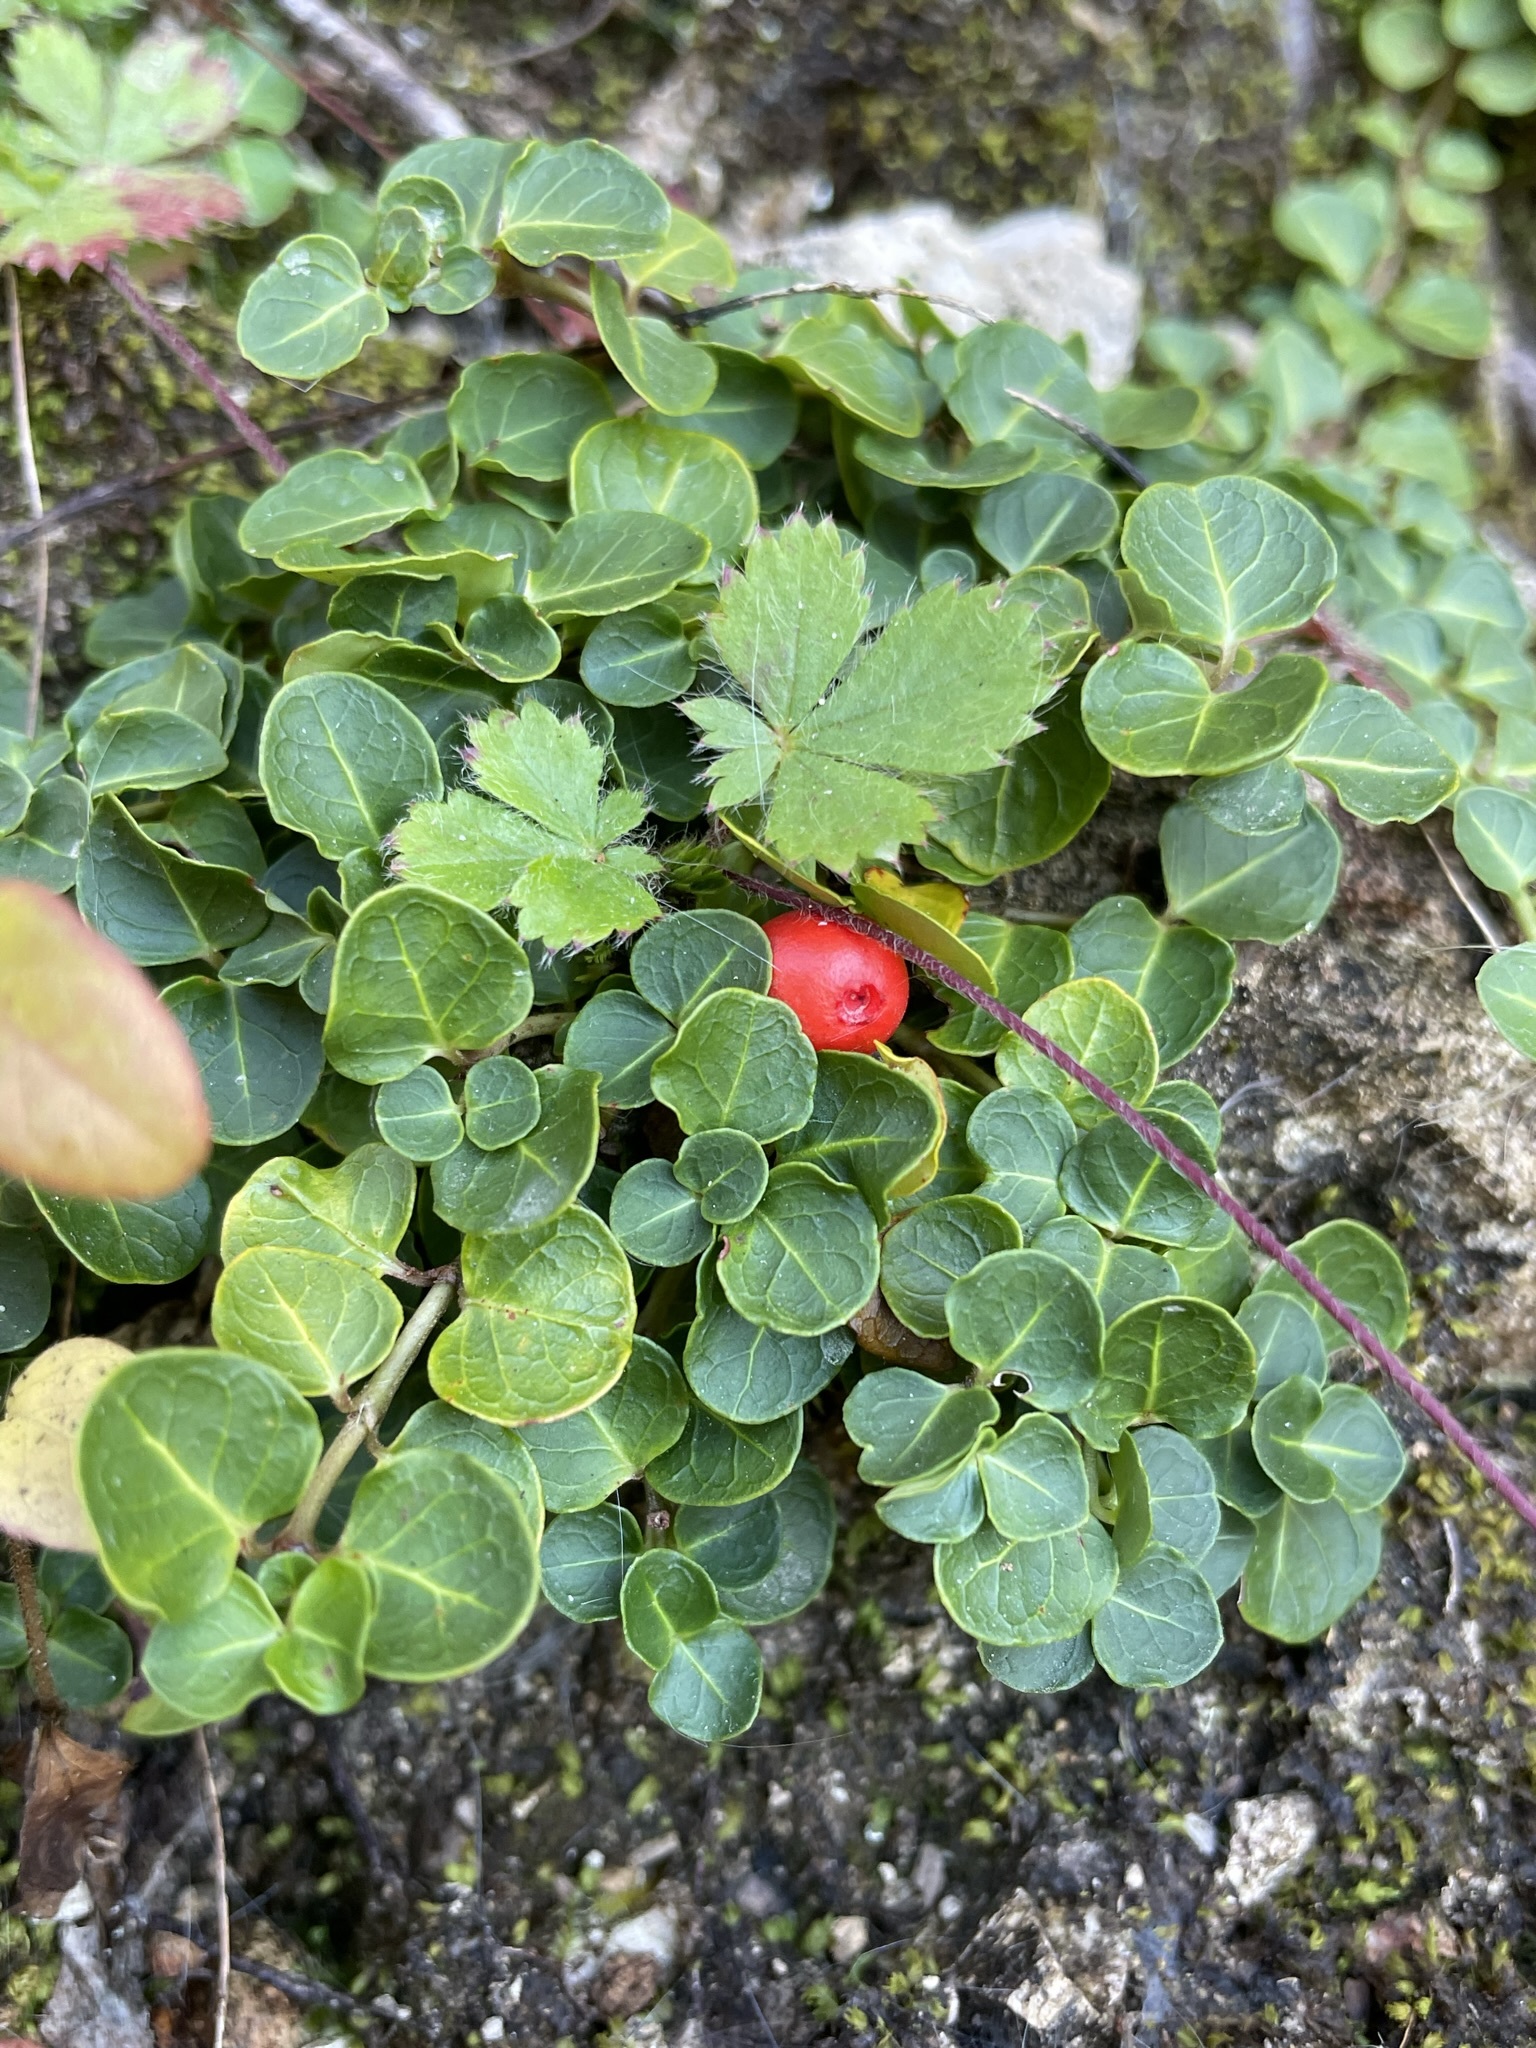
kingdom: Plantae
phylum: Tracheophyta
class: Magnoliopsida
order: Gentianales
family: Rubiaceae
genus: Mitchella
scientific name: Mitchella repens
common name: Partridge-berry
